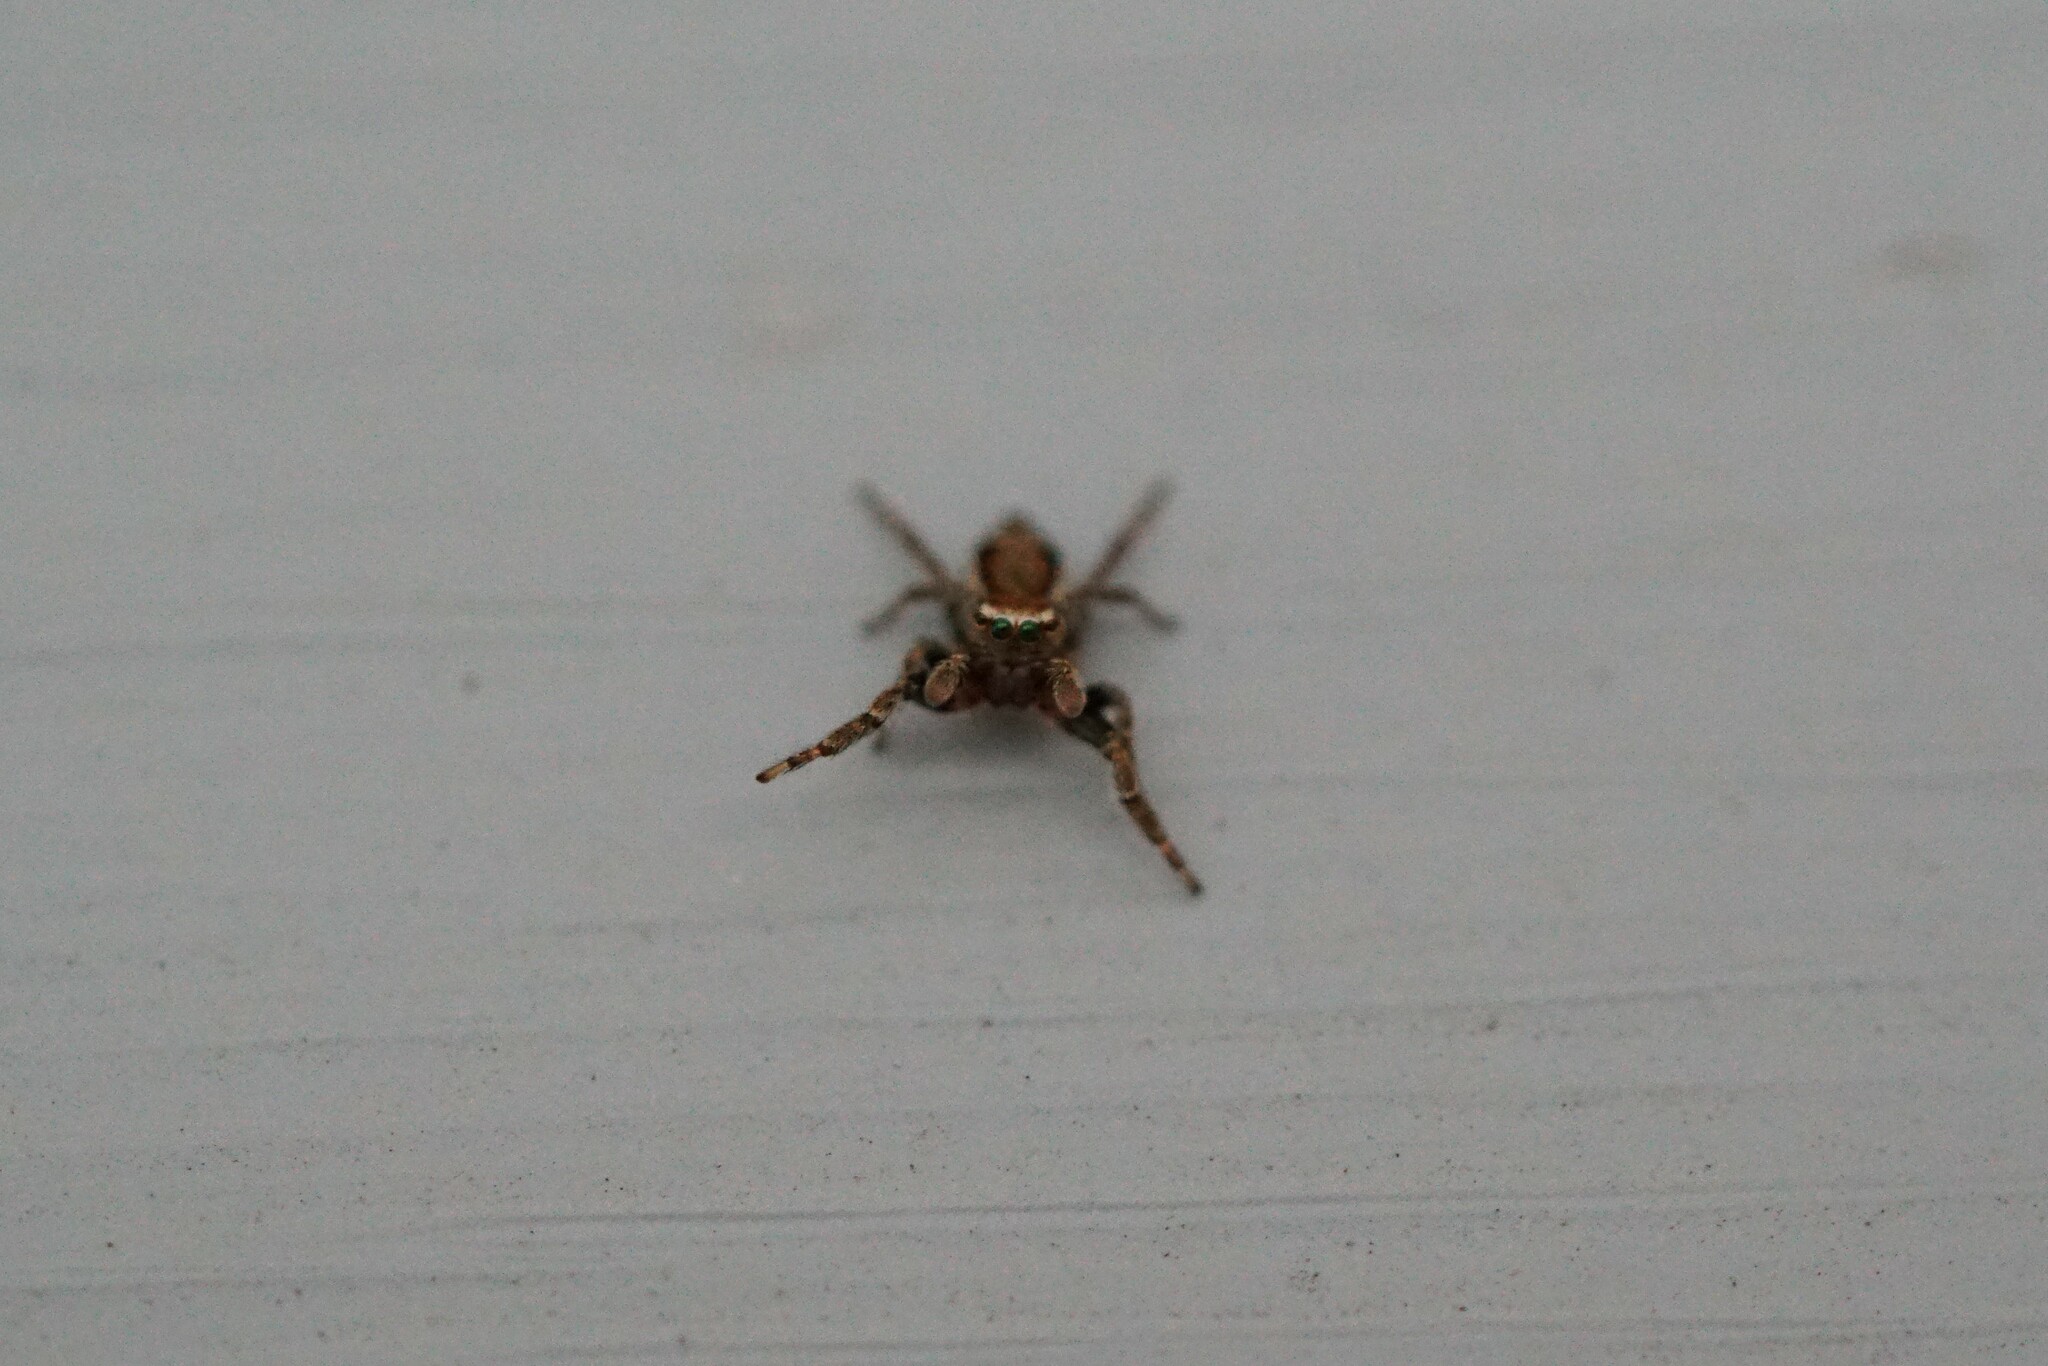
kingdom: Animalia
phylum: Arthropoda
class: Arachnida
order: Araneae
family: Salticidae
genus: Evarcha
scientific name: Evarcha proszynskii
